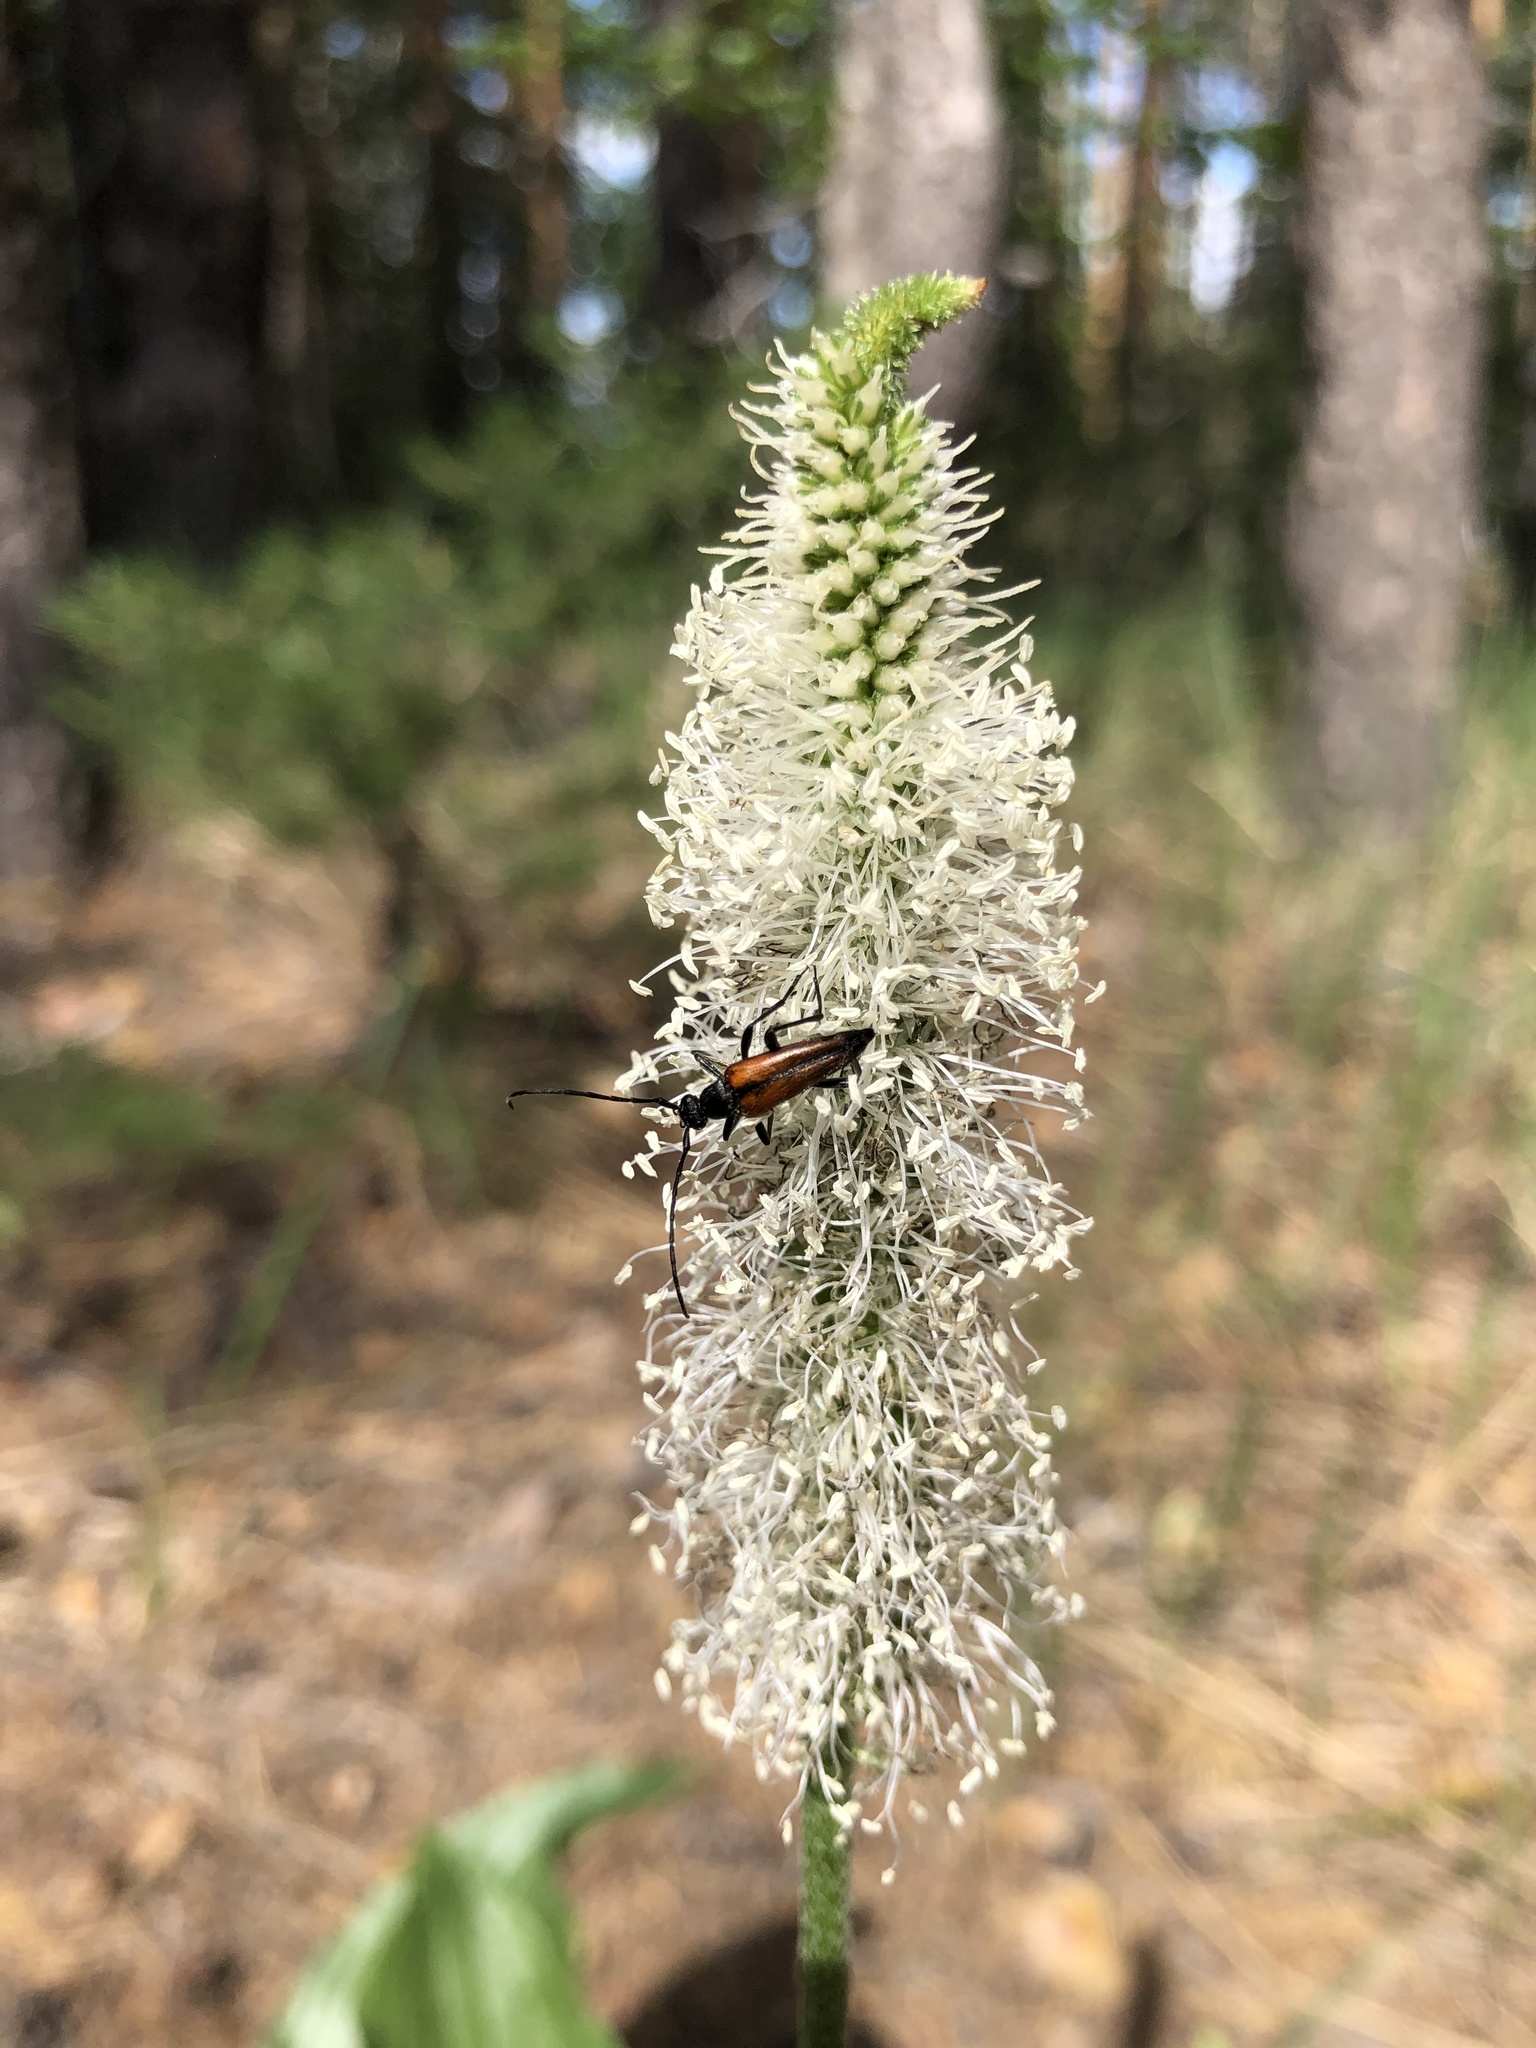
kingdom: Plantae
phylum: Tracheophyta
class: Magnoliopsida
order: Lamiales
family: Plantaginaceae
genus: Plantago
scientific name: Plantago maxima
